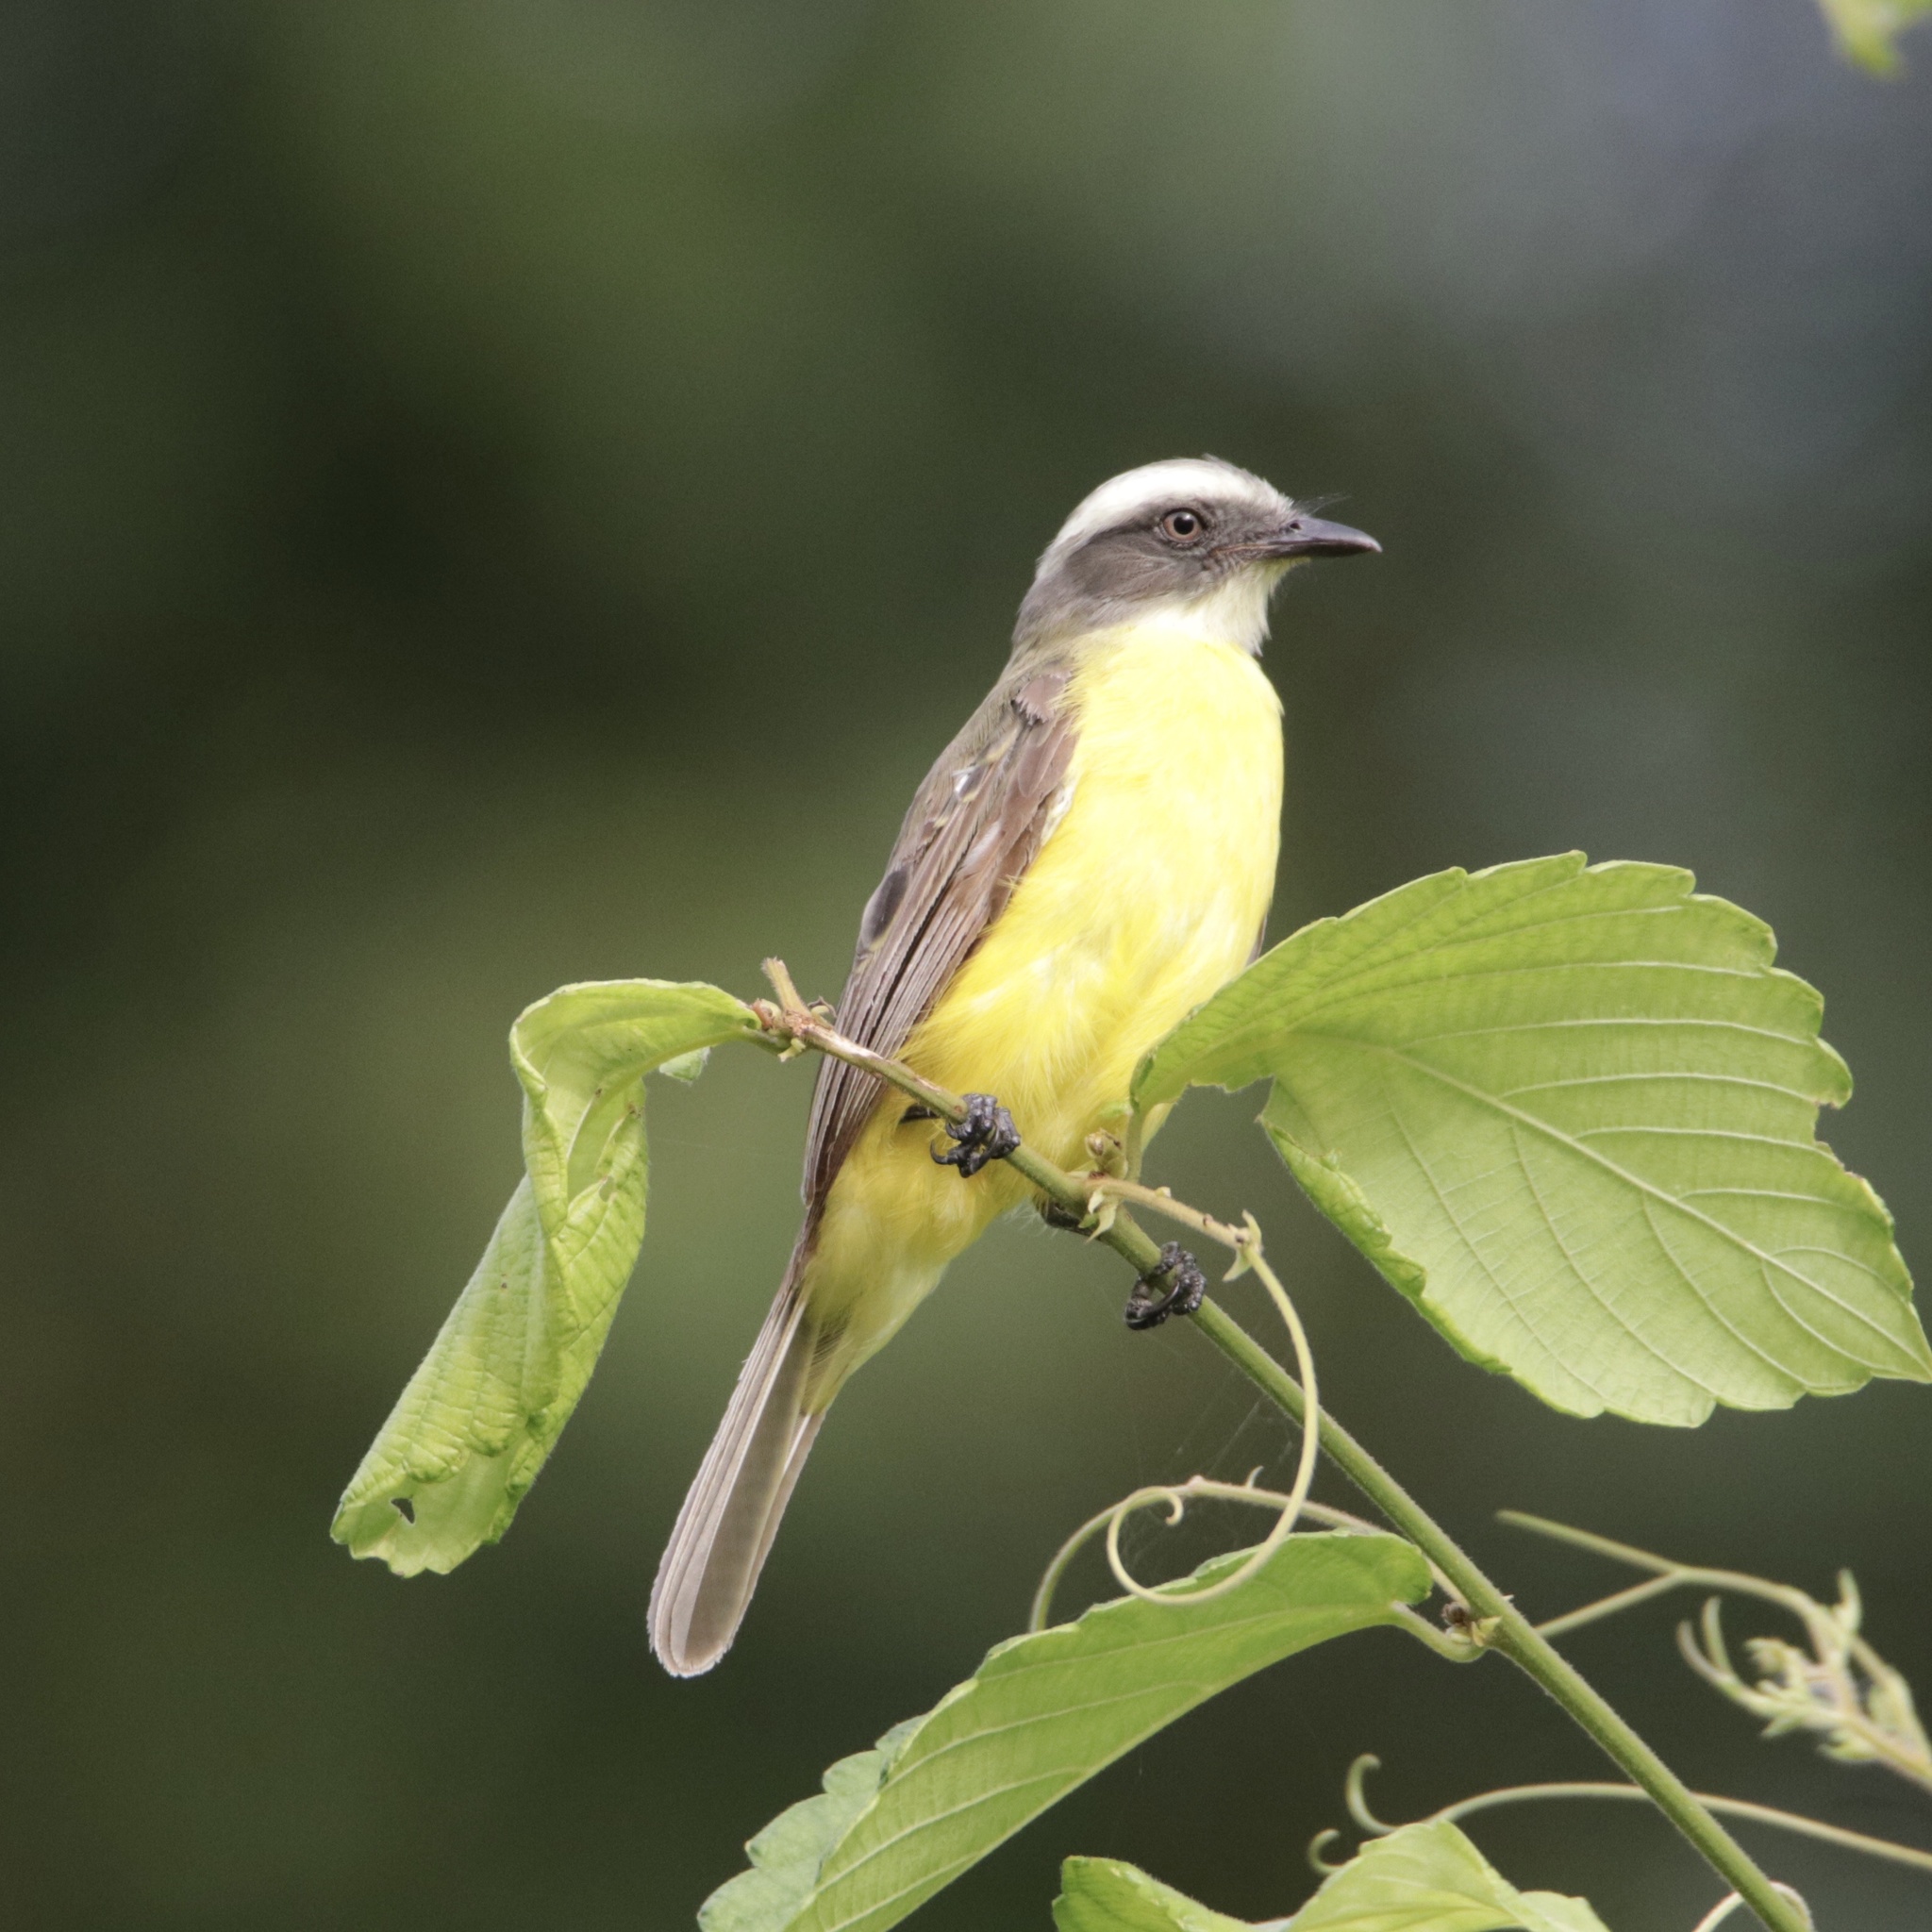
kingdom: Animalia
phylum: Chordata
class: Aves
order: Passeriformes
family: Tyrannidae
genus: Myiozetetes
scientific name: Myiozetetes similis
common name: Social flycatcher
